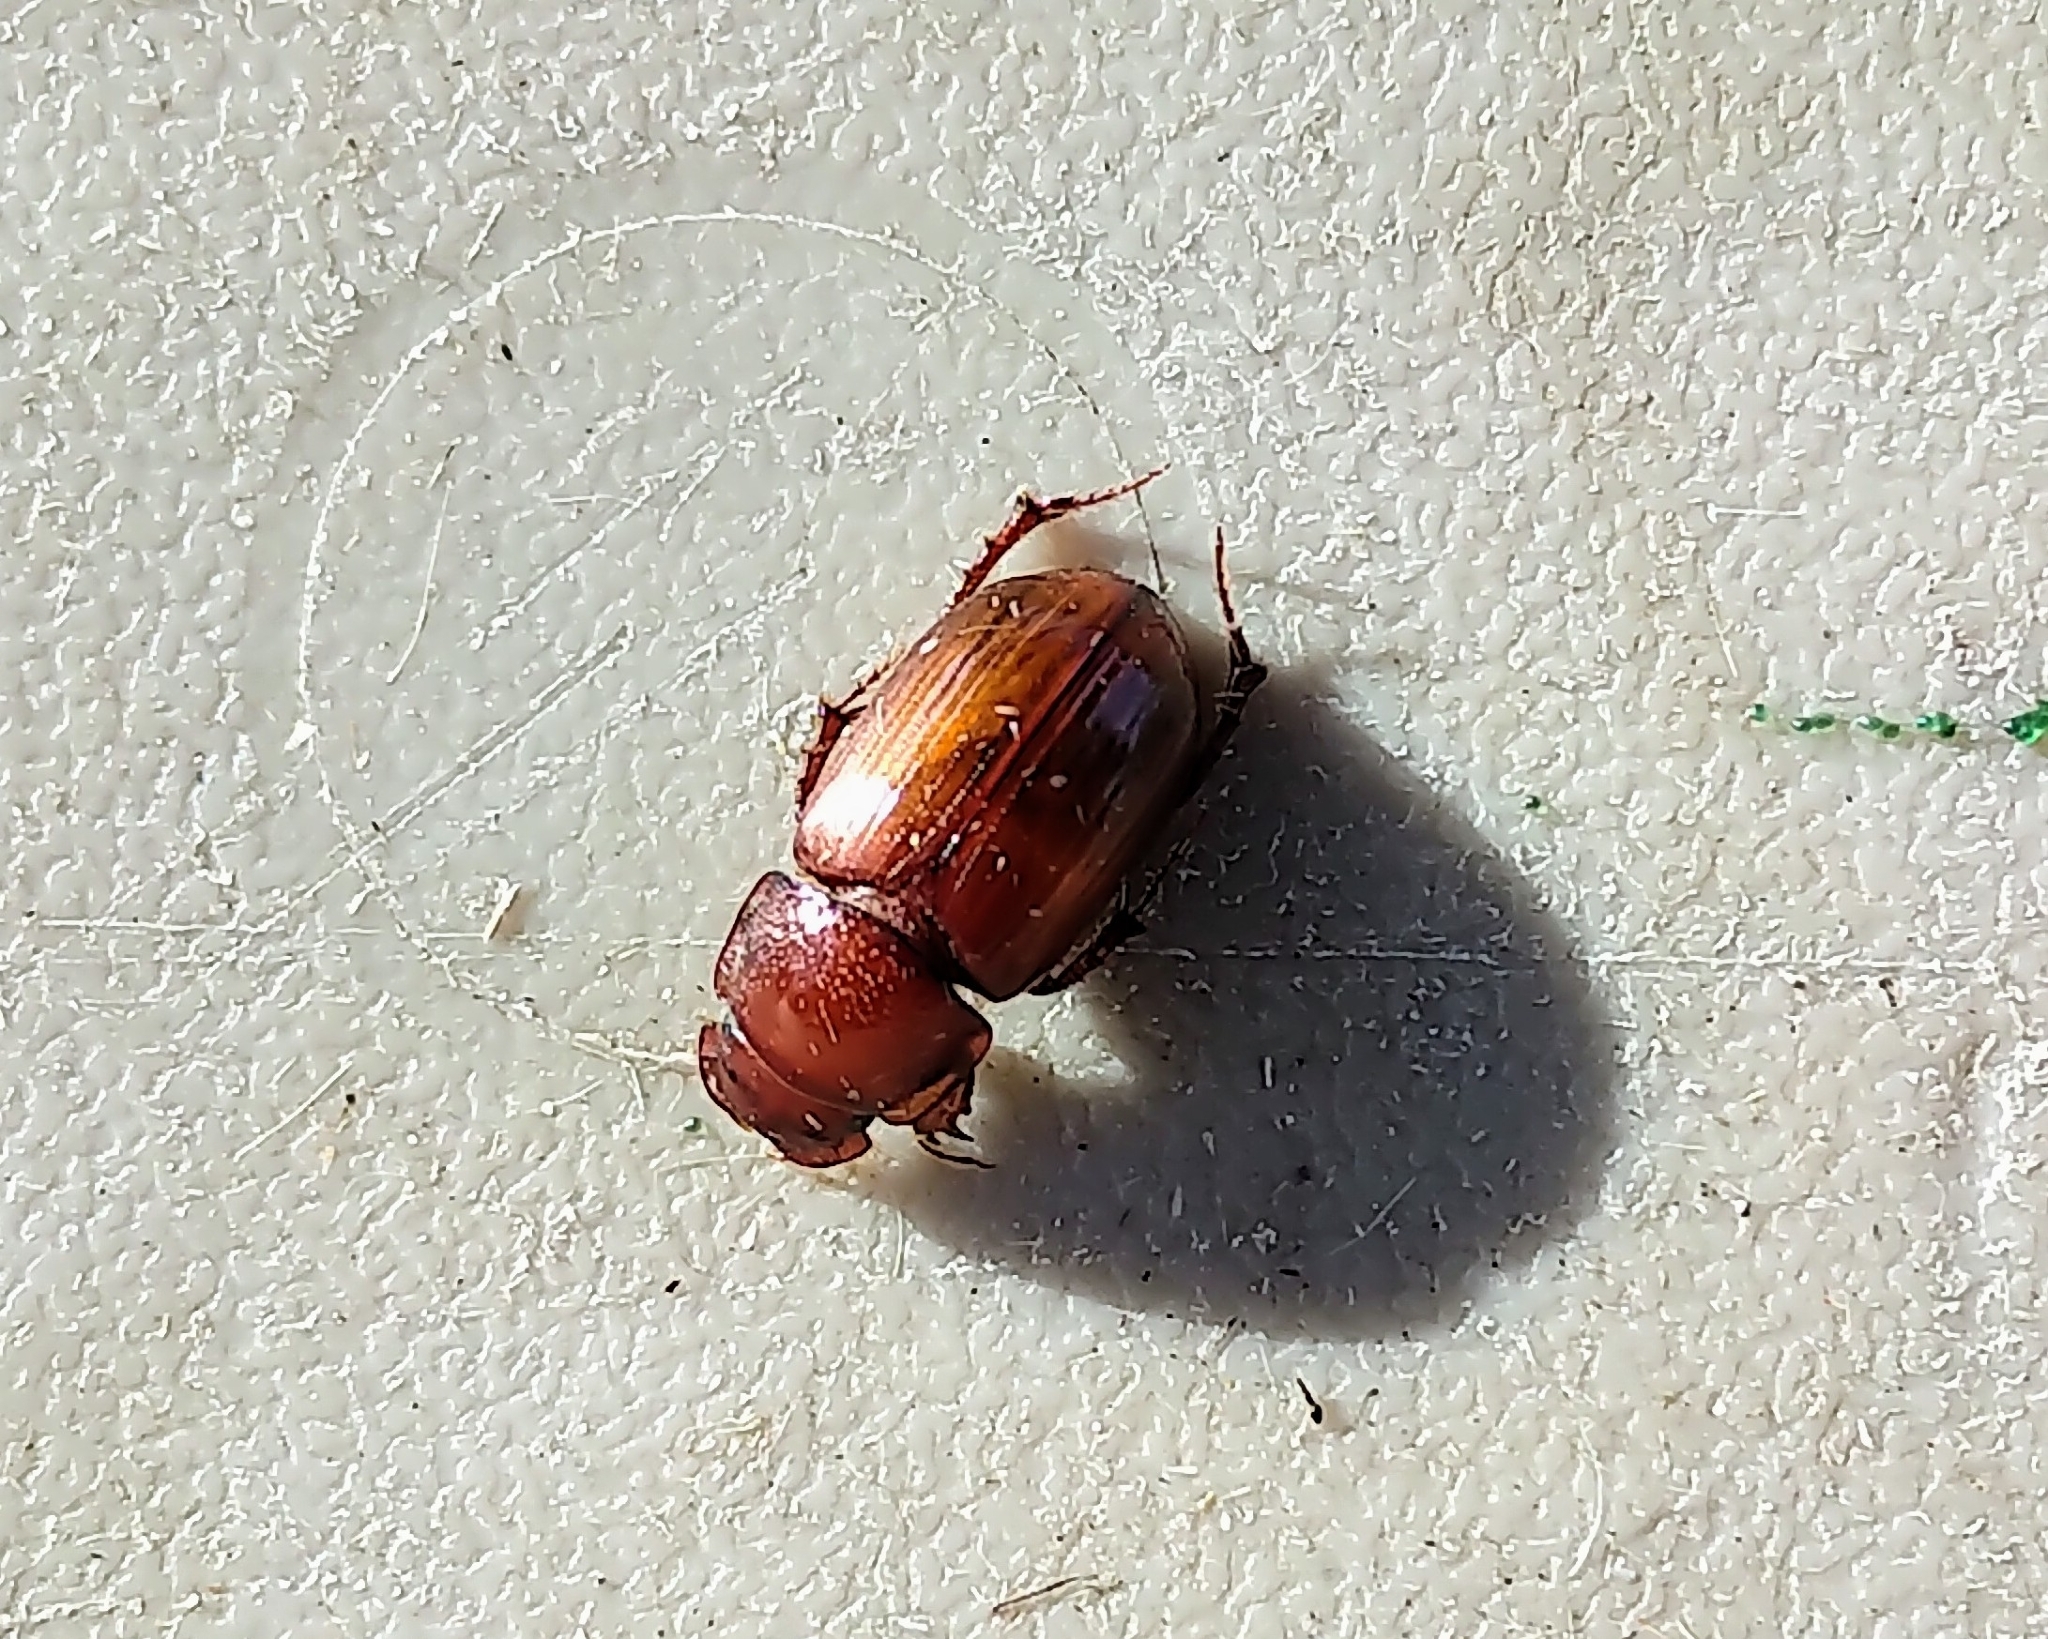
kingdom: Animalia
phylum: Arthropoda
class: Insecta
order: Coleoptera
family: Scarabaeidae
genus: Cryptoscatomaseter
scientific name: Cryptoscatomaseter iowensis
